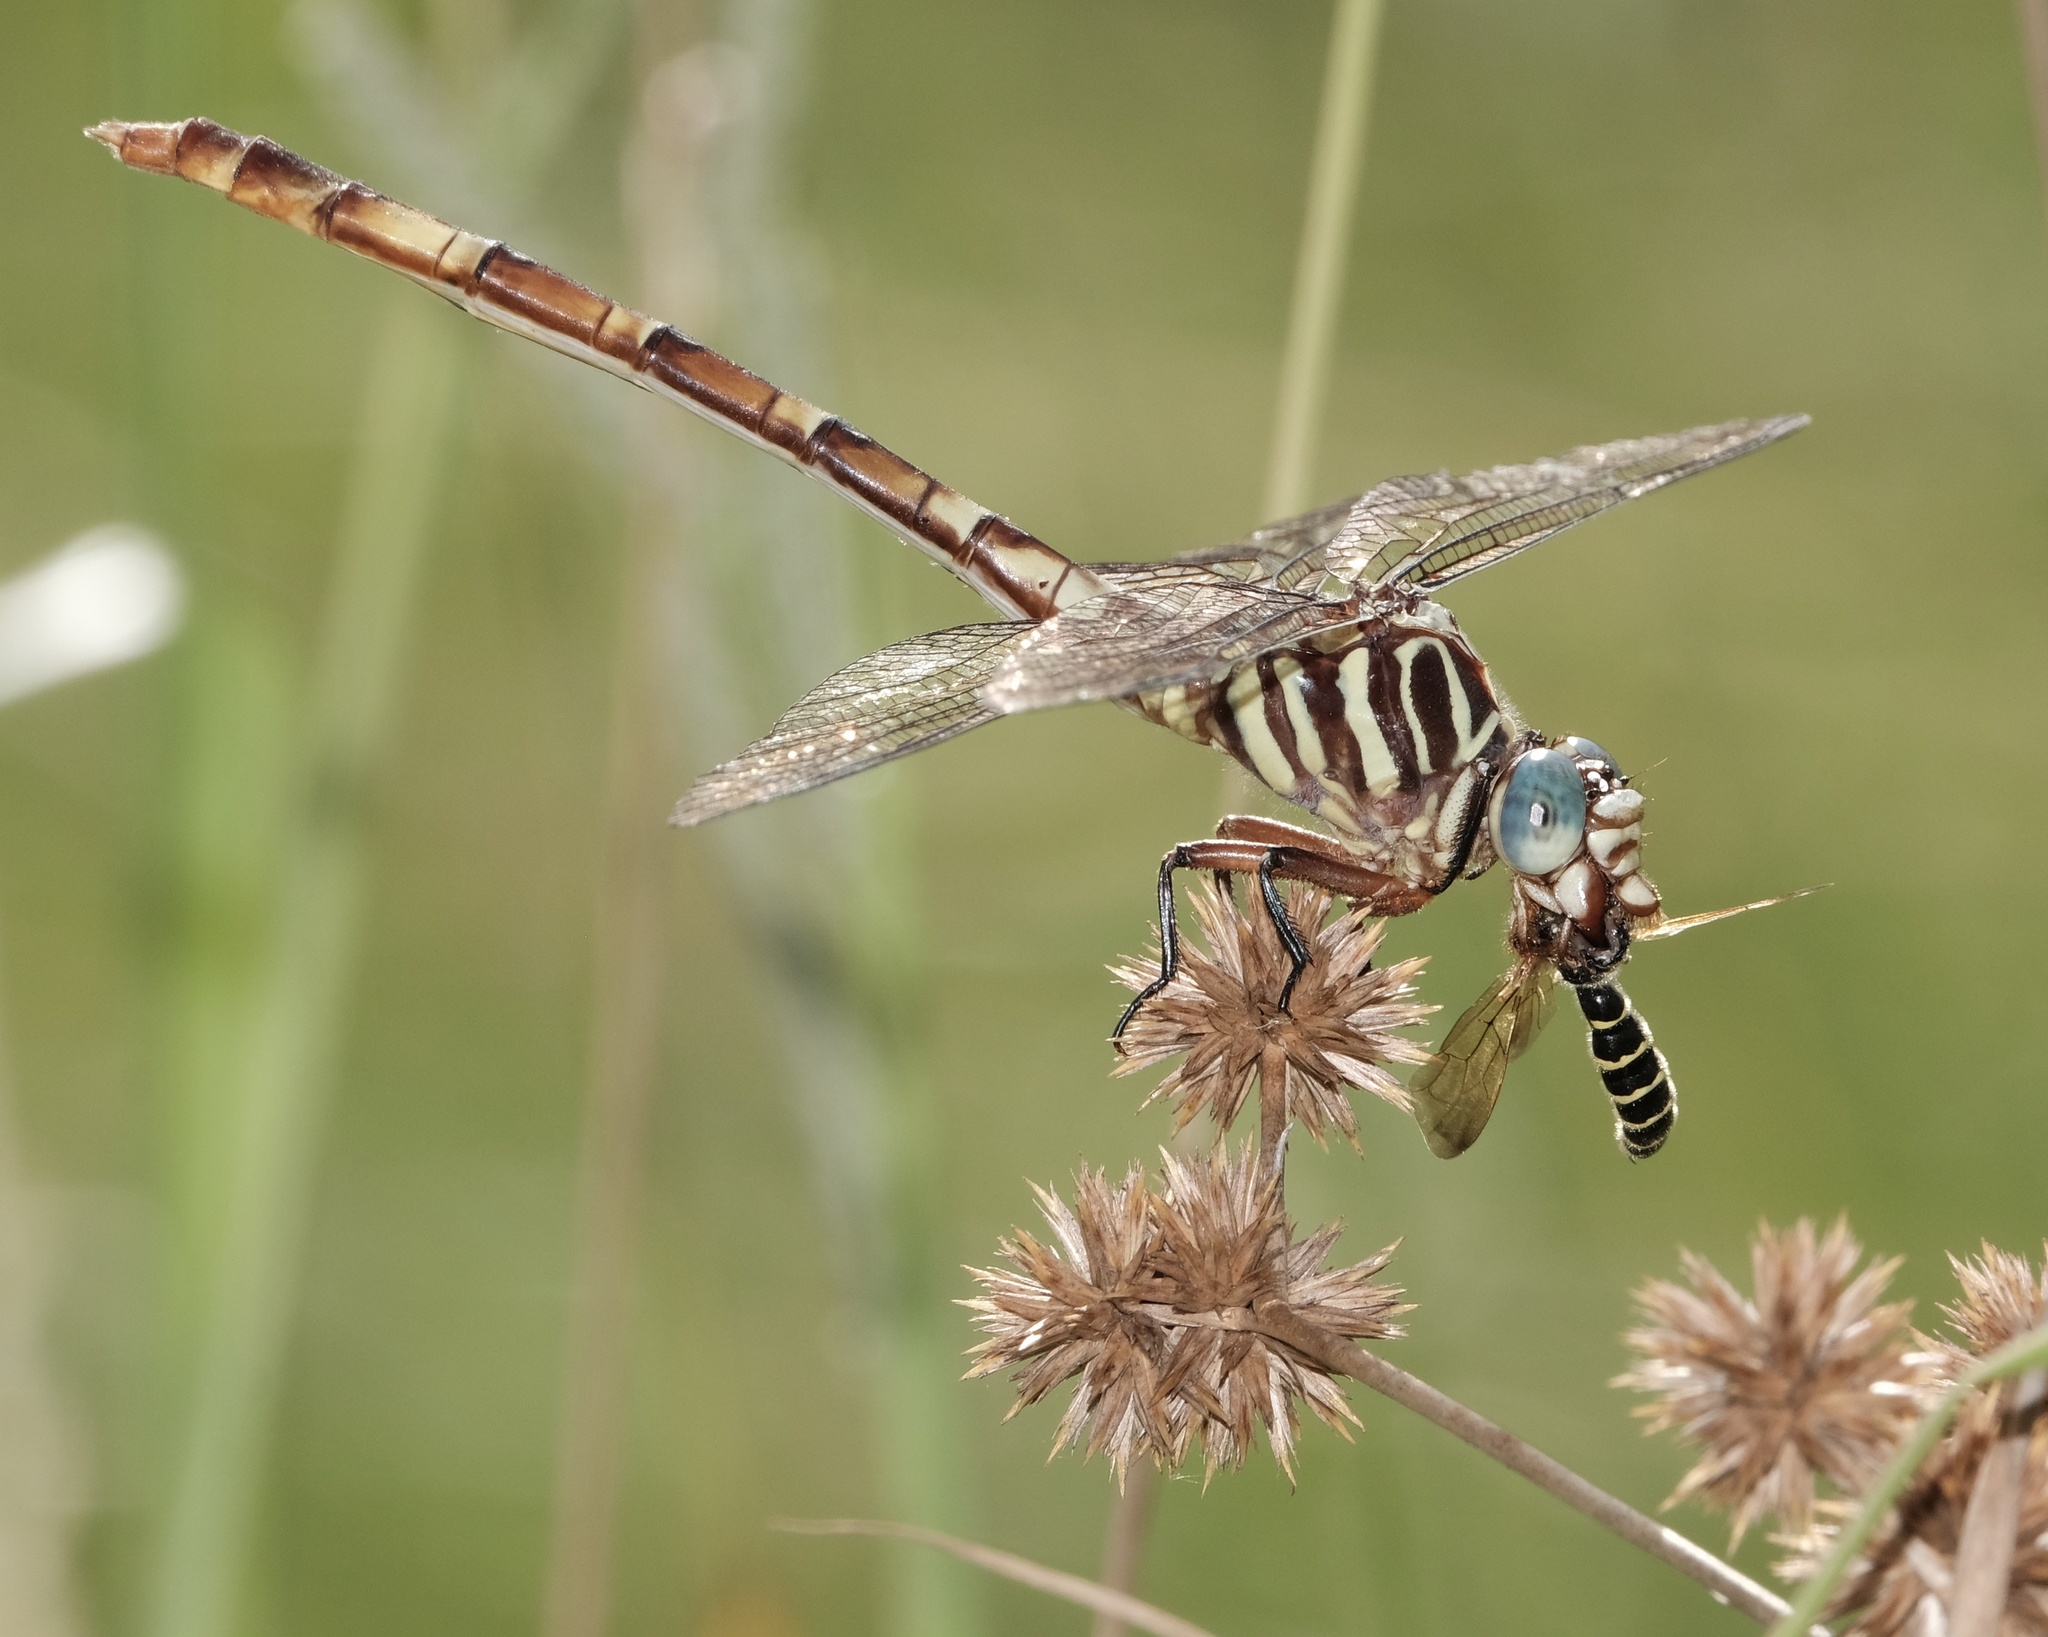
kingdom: Animalia
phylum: Arthropoda
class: Insecta
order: Odonata
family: Gomphidae
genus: Aphylla
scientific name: Aphylla angustifolia
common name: Broad-striped forceptail
